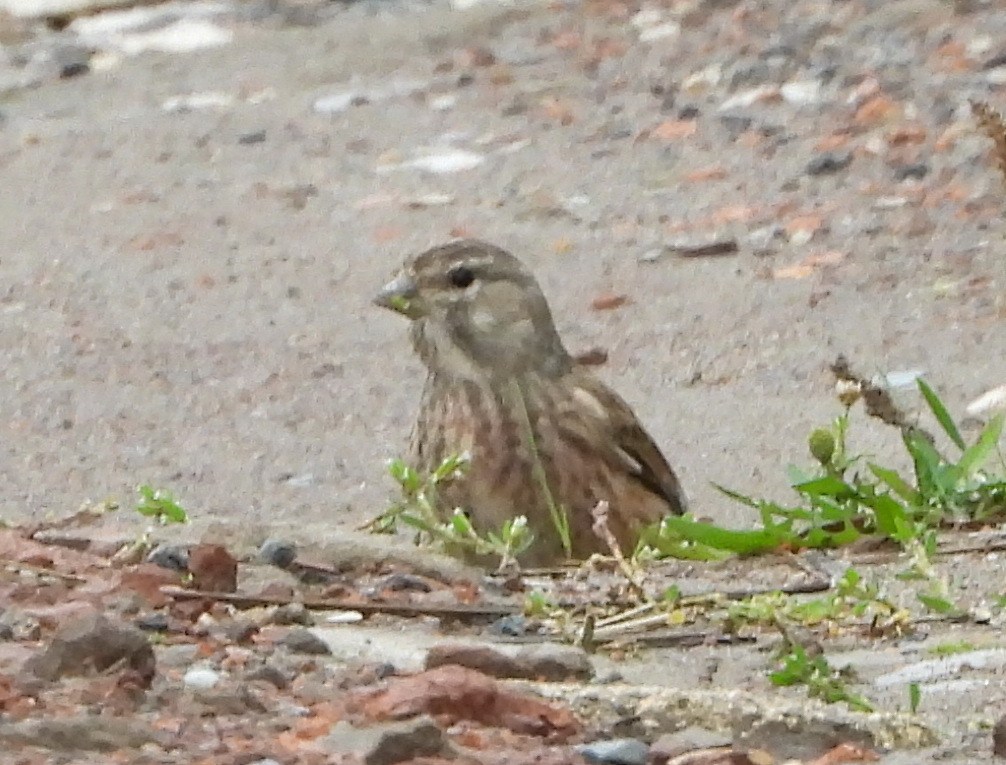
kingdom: Animalia
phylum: Chordata
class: Aves
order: Passeriformes
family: Fringillidae
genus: Linaria
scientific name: Linaria cannabina
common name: Common linnet
